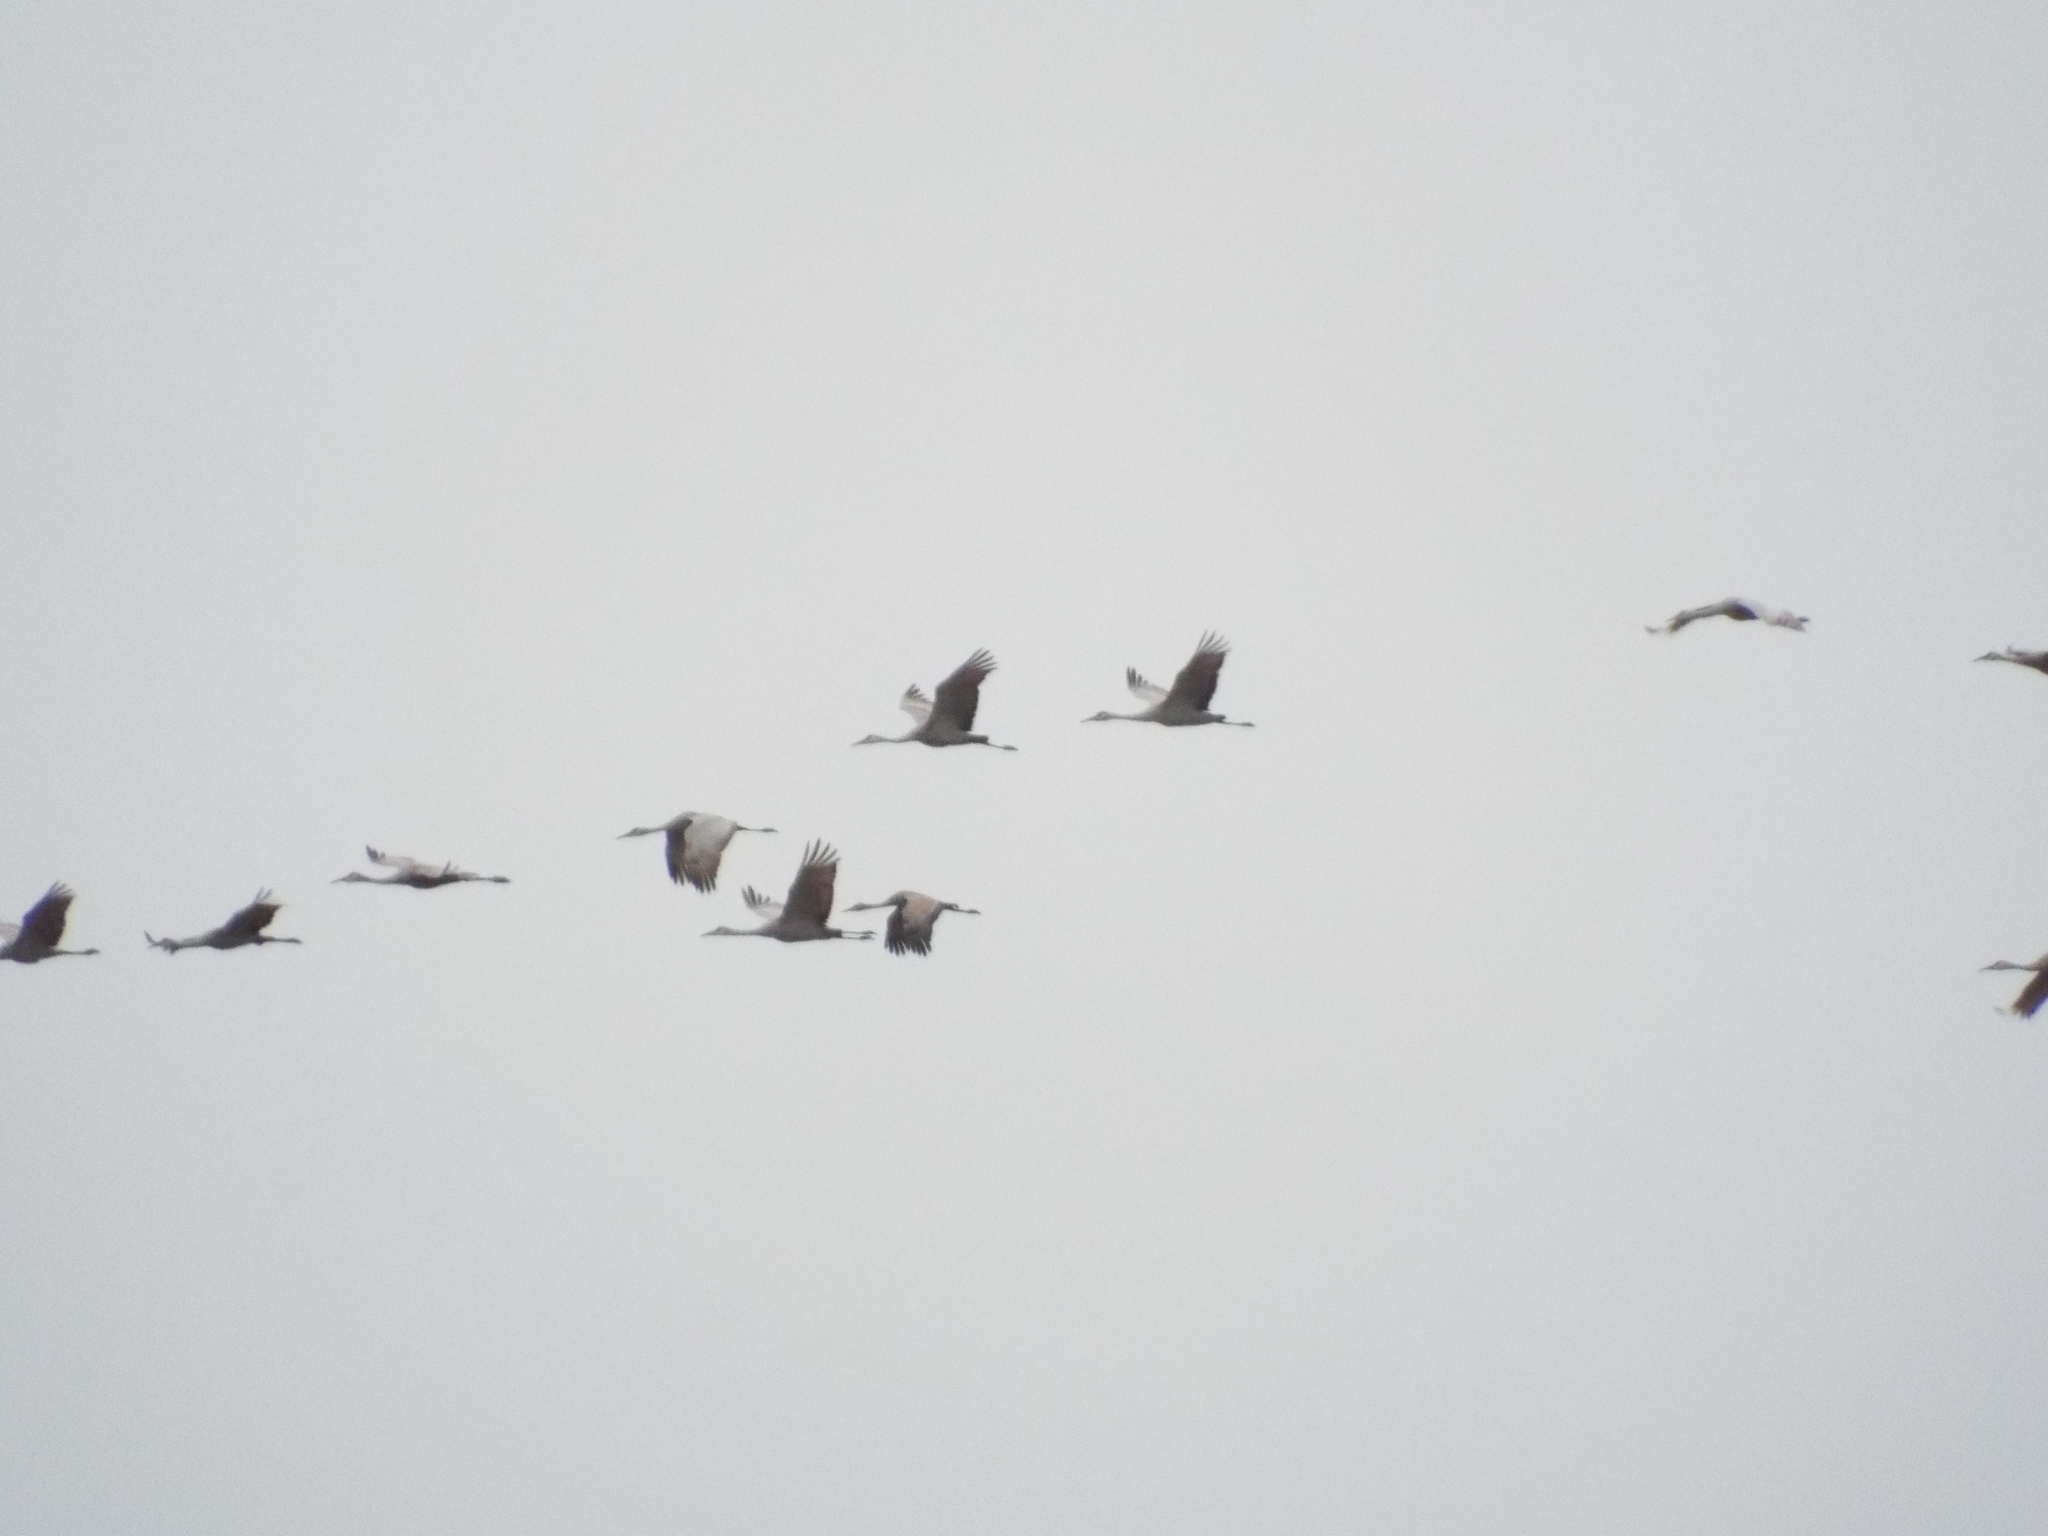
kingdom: Animalia
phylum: Chordata
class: Aves
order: Gruiformes
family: Gruidae
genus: Grus
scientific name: Grus canadensis
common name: Sandhill crane
